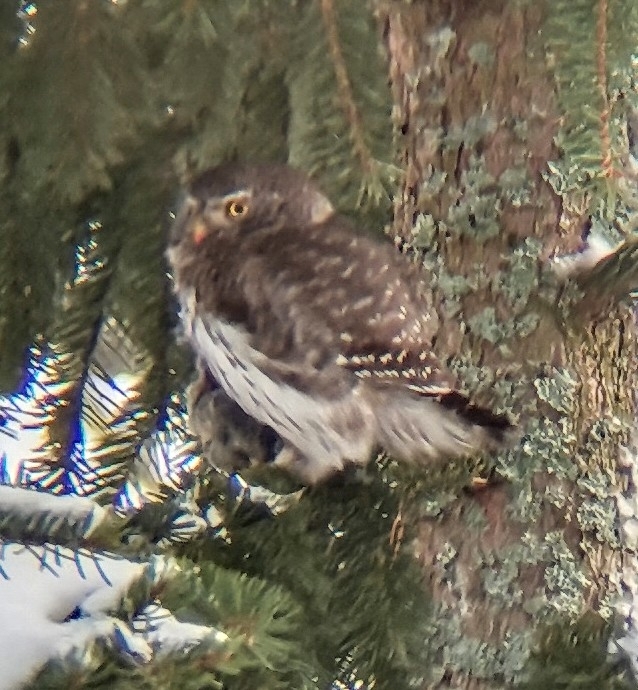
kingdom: Animalia
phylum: Chordata
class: Aves
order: Strigiformes
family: Strigidae
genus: Glaucidium
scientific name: Glaucidium passerinum
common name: Eurasian pygmy owl
